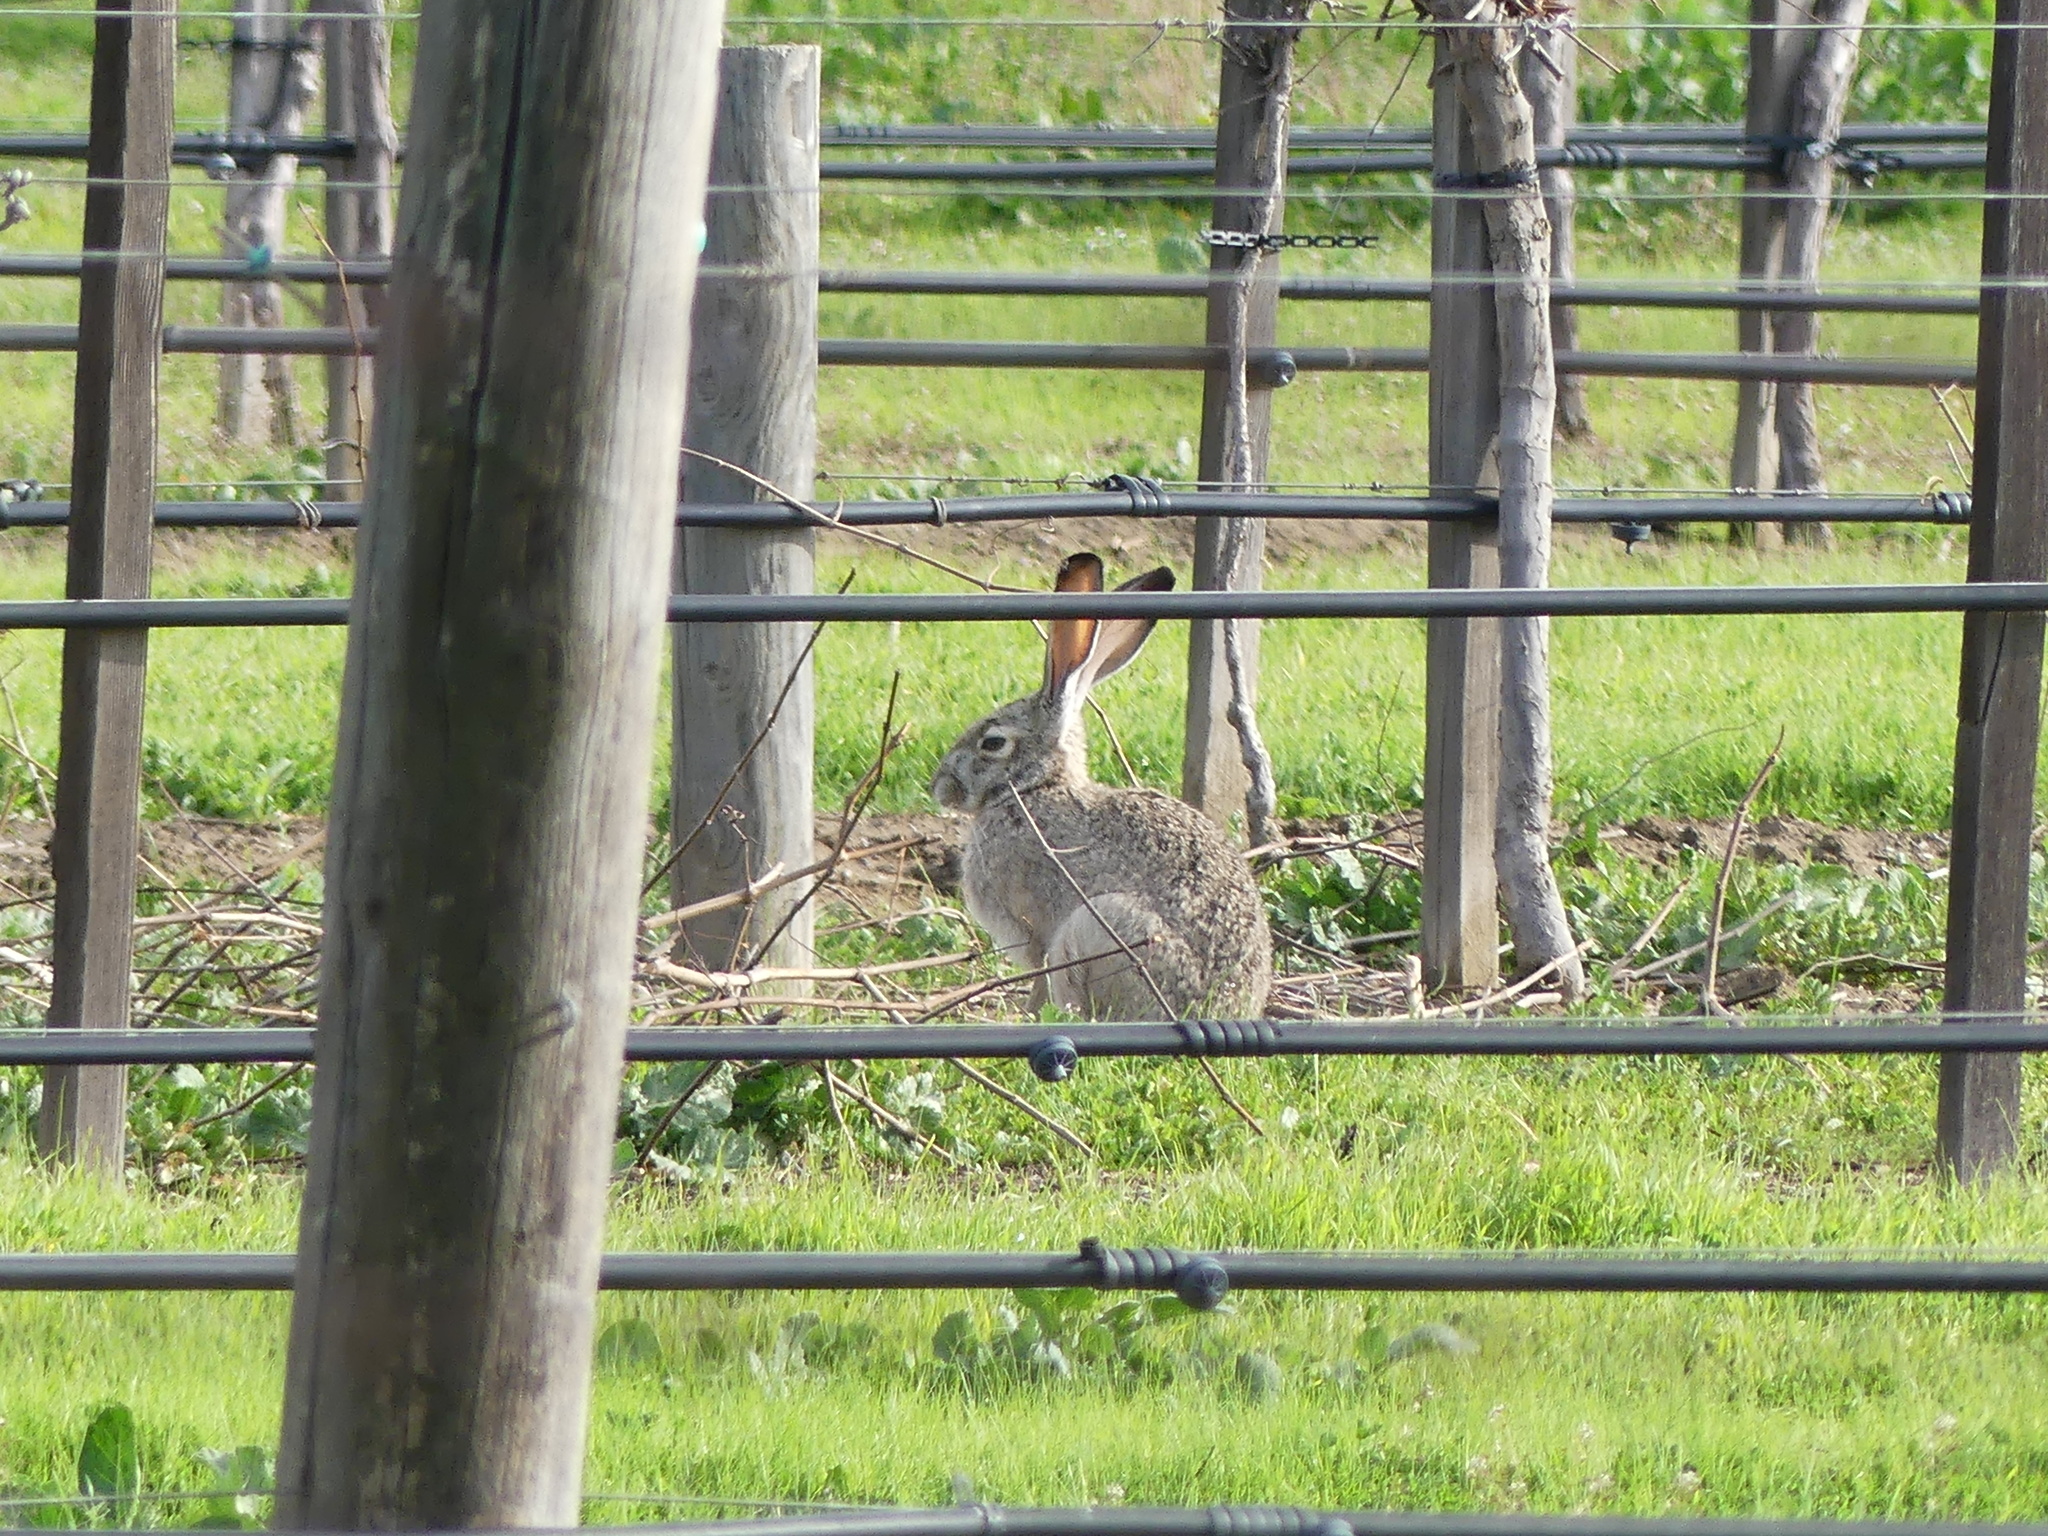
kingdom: Animalia
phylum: Chordata
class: Mammalia
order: Lagomorpha
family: Leporidae
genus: Lepus
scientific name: Lepus californicus
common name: Black-tailed jackrabbit
